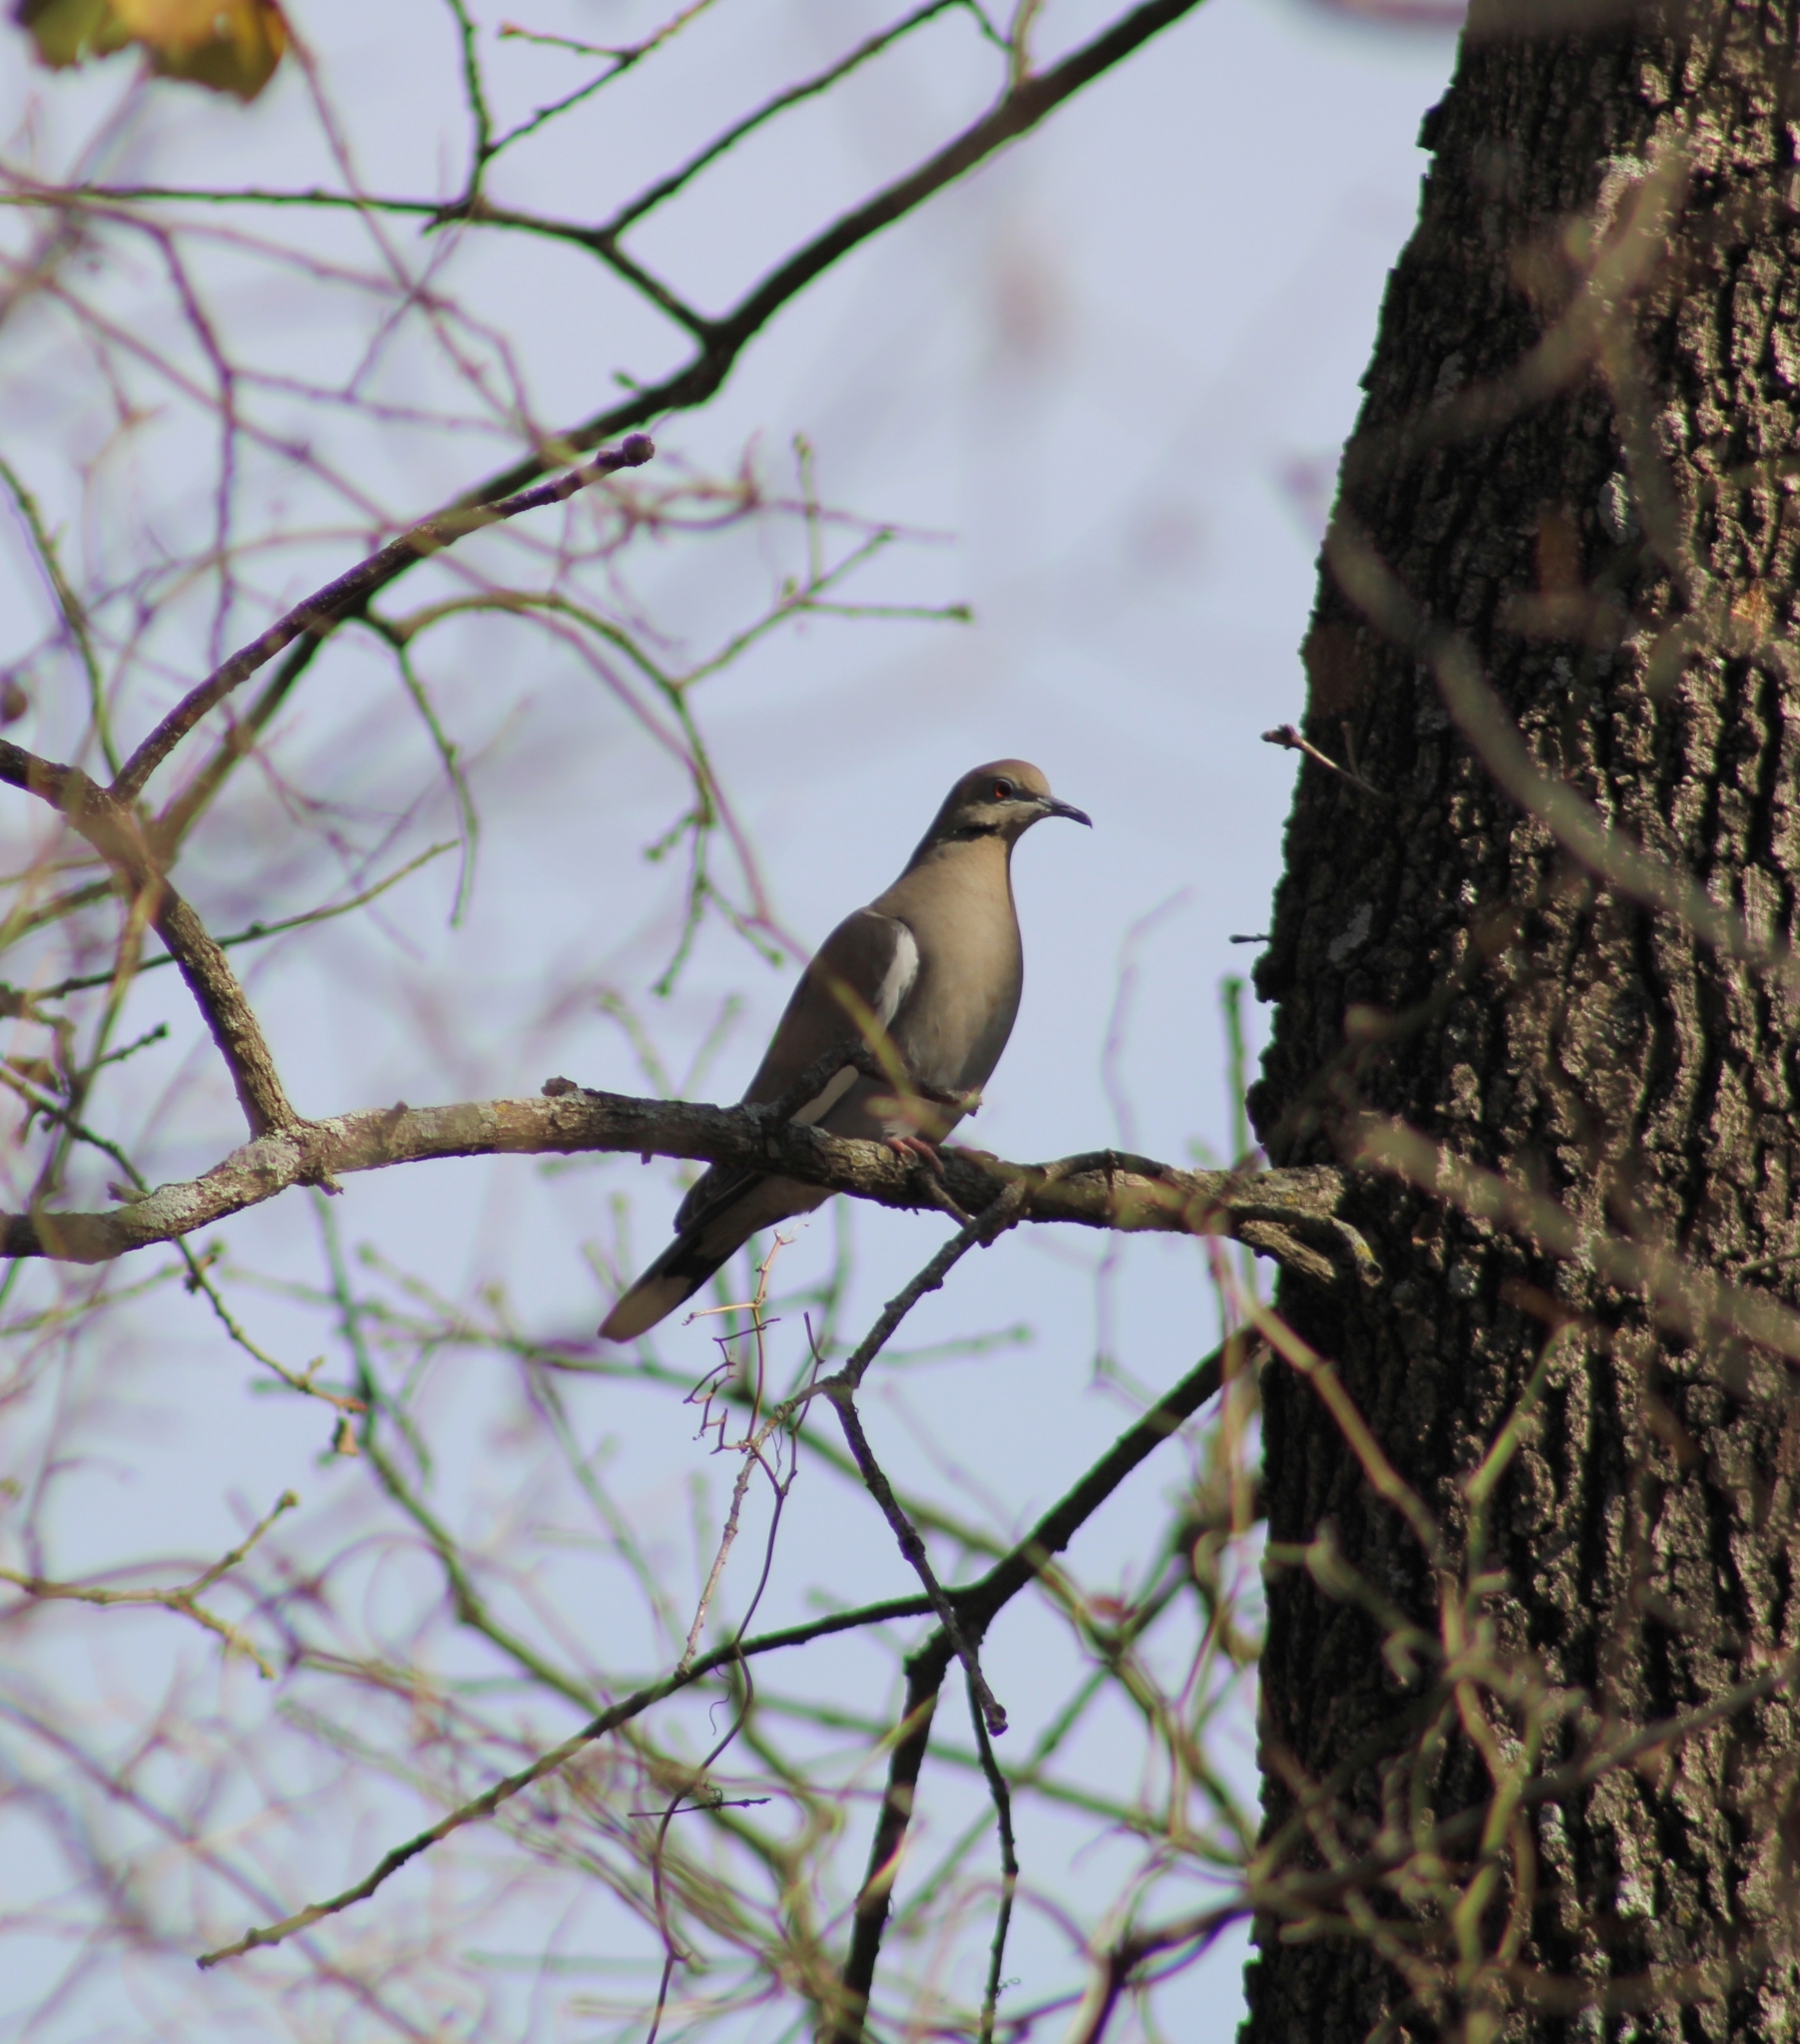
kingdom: Animalia
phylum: Chordata
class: Aves
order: Columbiformes
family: Columbidae
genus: Zenaida
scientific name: Zenaida asiatica
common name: White-winged dove
